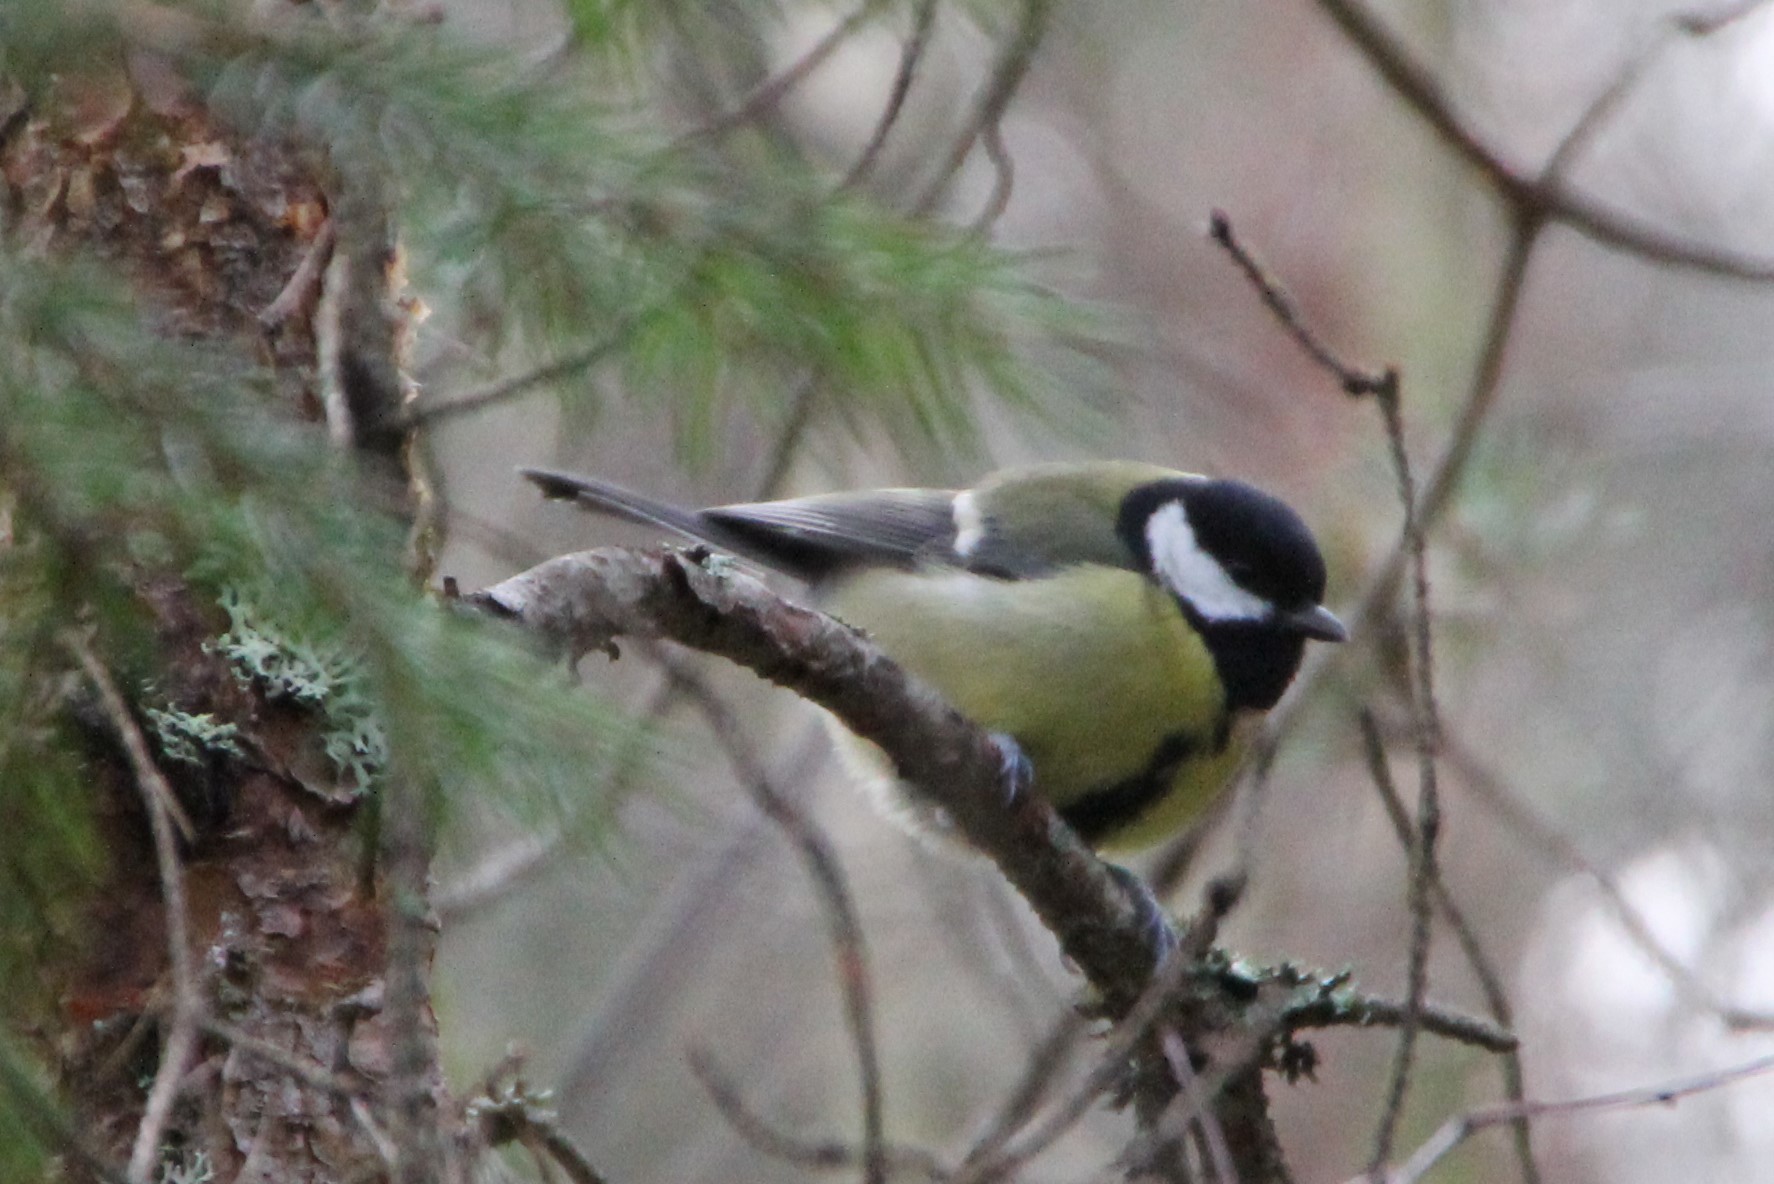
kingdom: Animalia
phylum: Chordata
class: Aves
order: Passeriformes
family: Paridae
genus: Parus
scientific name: Parus major
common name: Great tit
